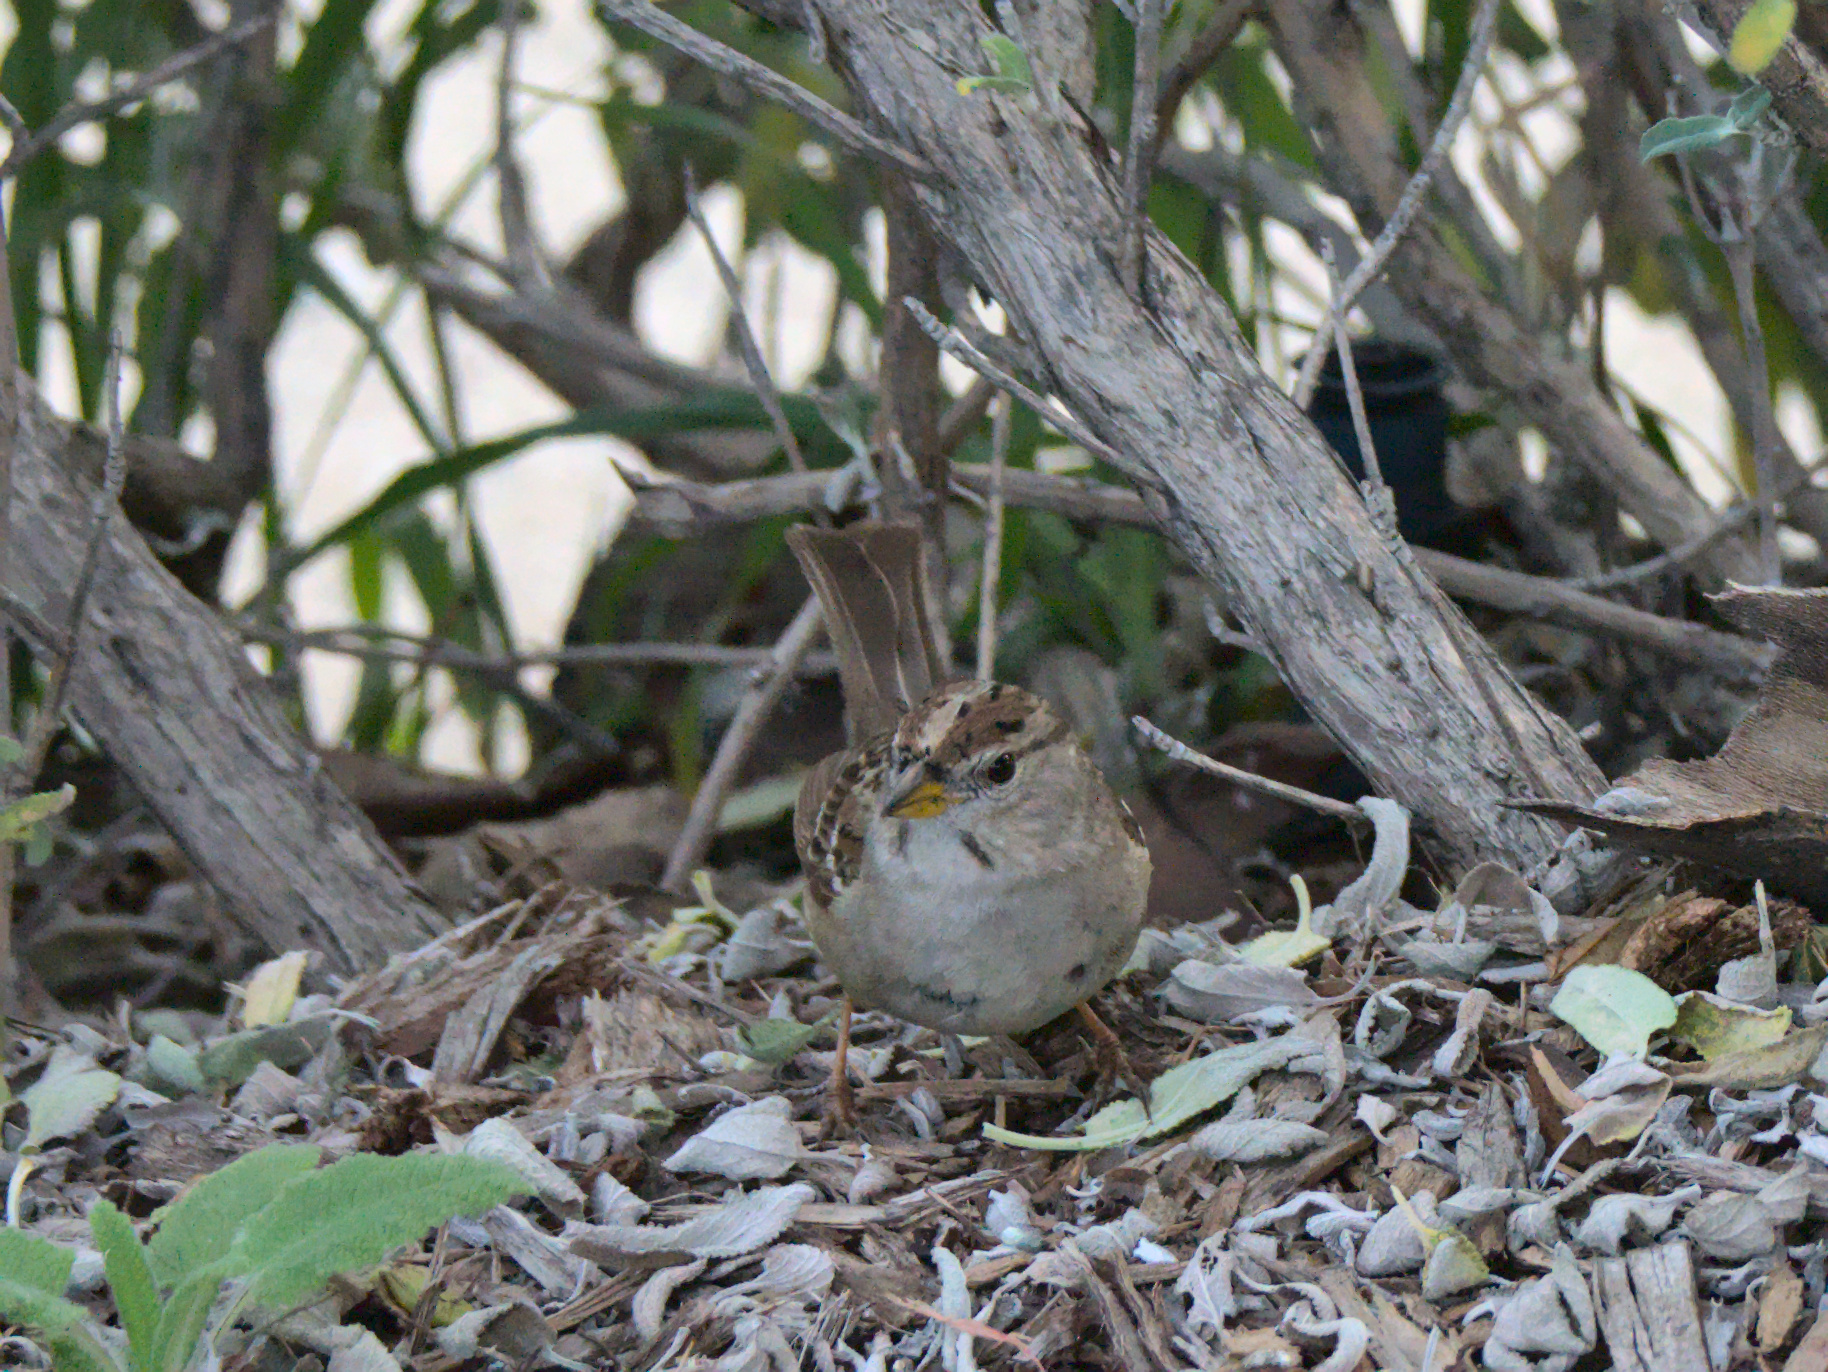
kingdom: Animalia
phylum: Chordata
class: Aves
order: Passeriformes
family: Passerellidae
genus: Zonotrichia
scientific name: Zonotrichia leucophrys
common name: White-crowned sparrow
